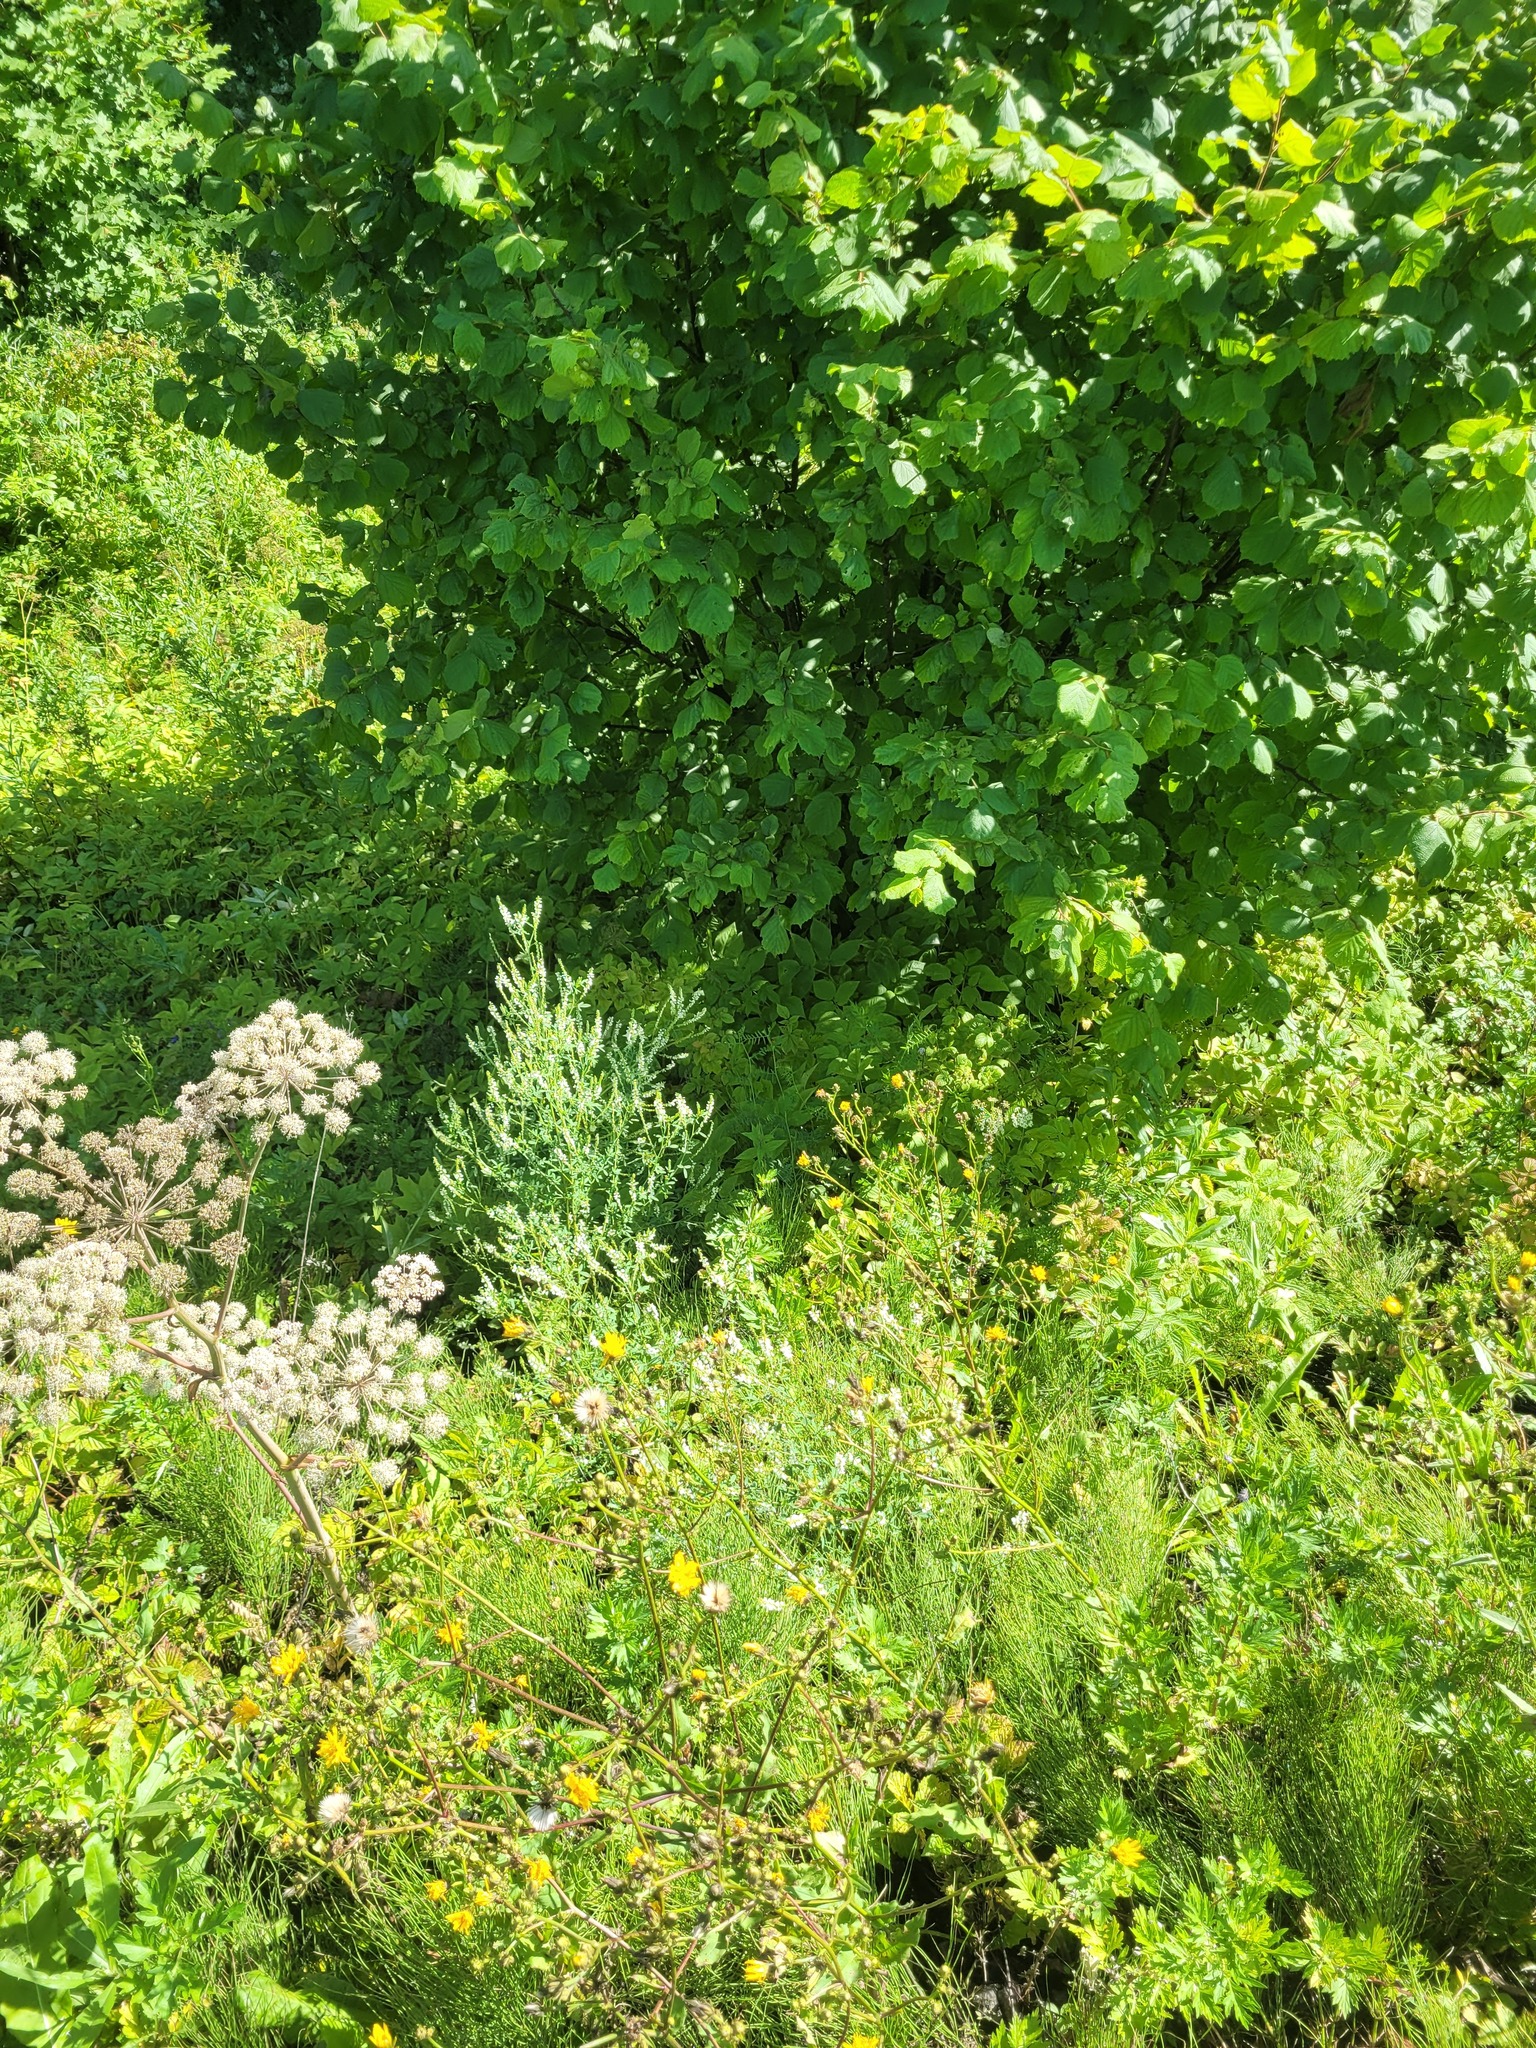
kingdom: Plantae
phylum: Tracheophyta
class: Magnoliopsida
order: Fabales
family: Fabaceae
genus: Melilotus
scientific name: Melilotus albus
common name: White melilot
